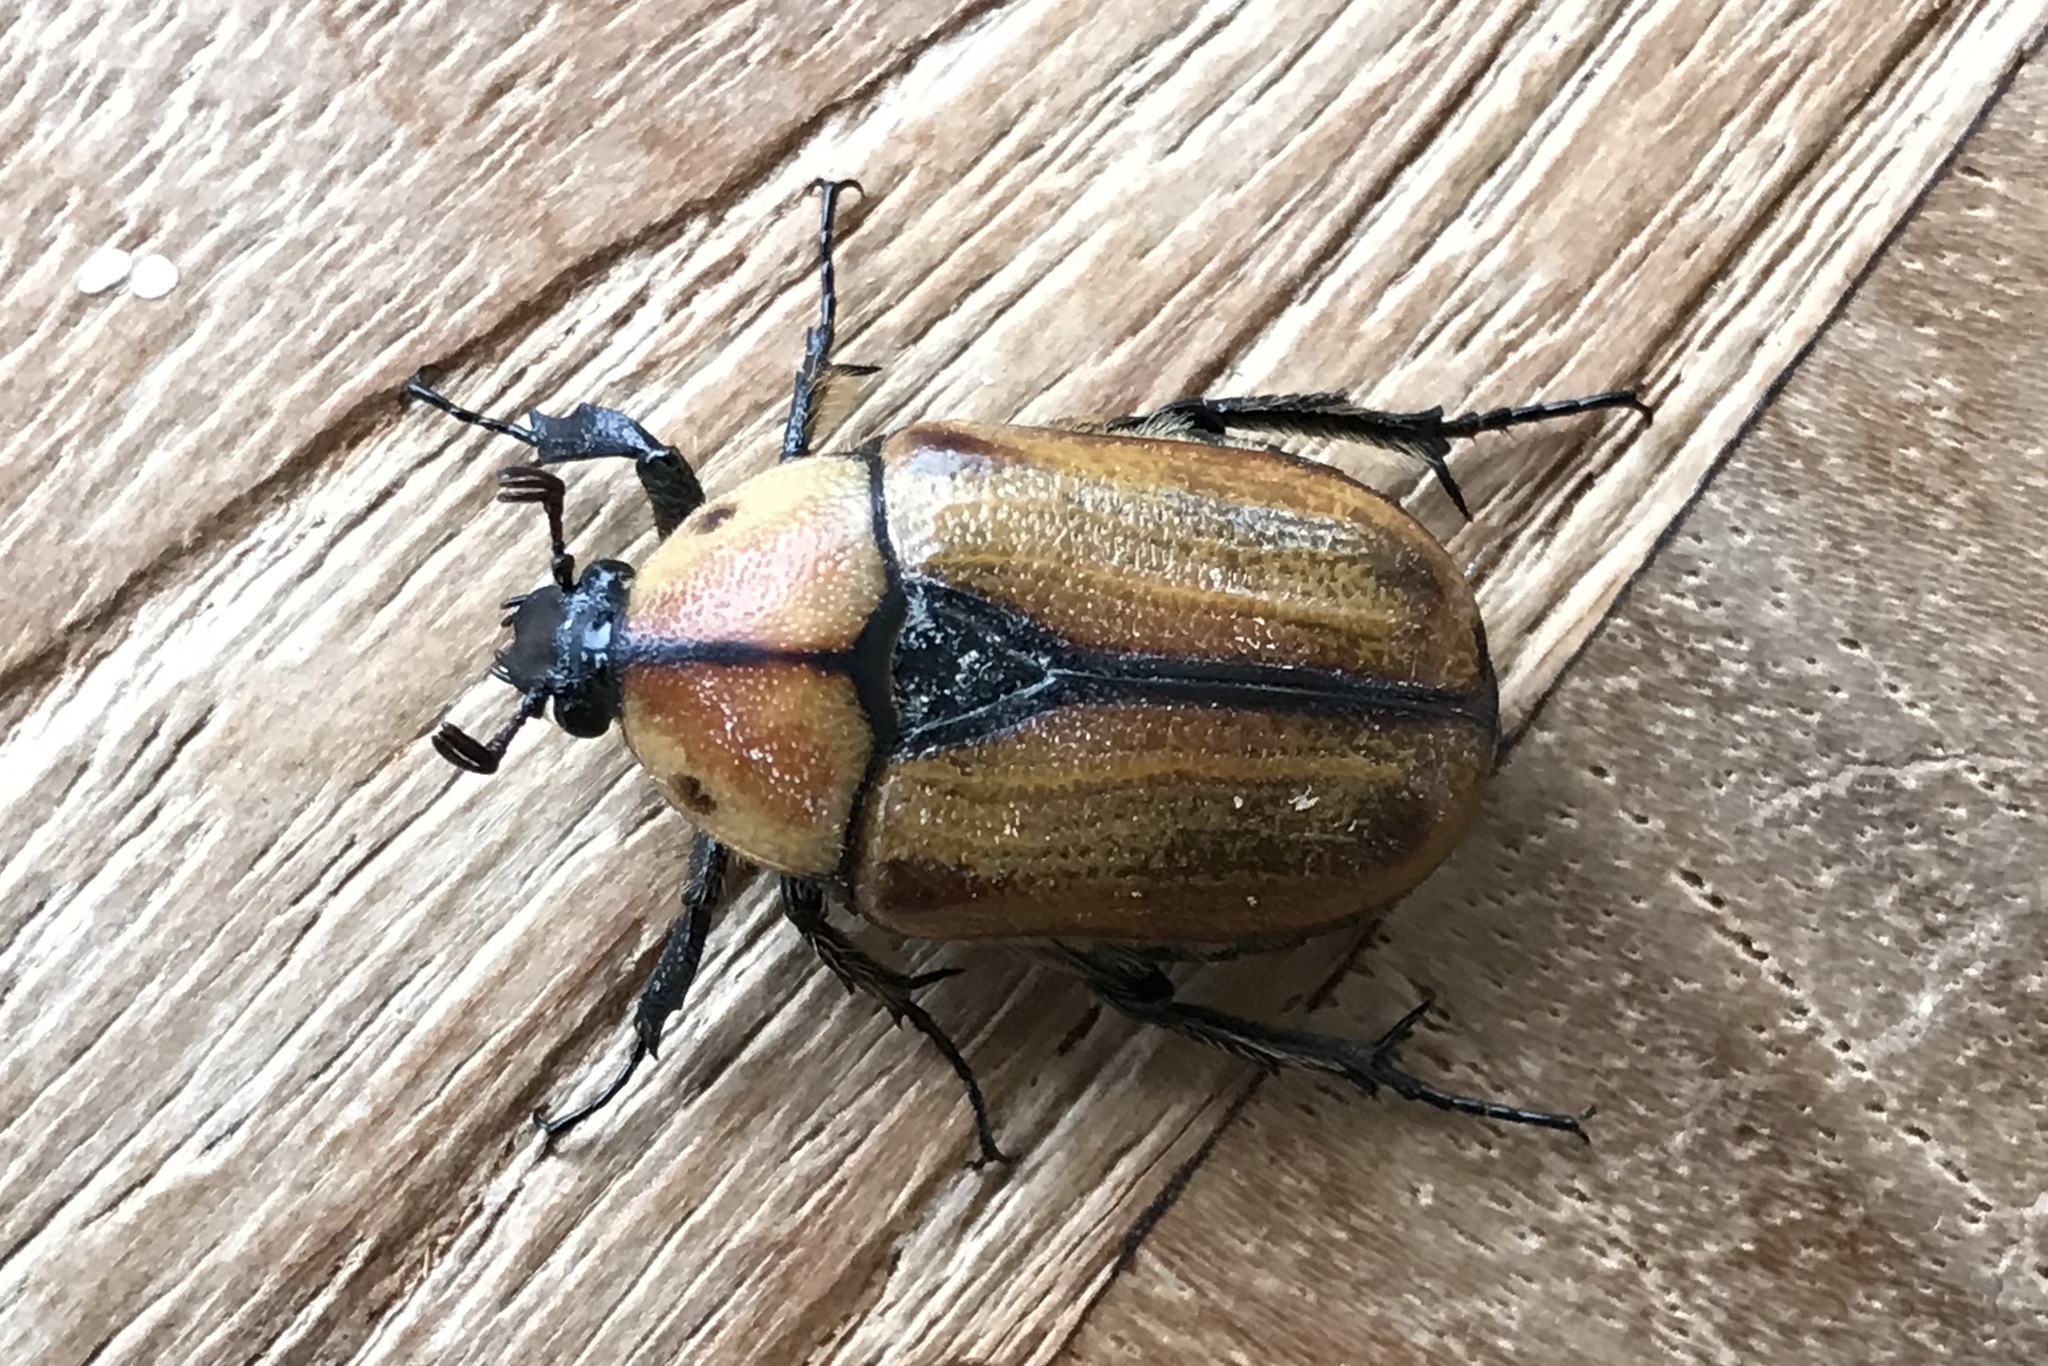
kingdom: Animalia
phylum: Arthropoda
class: Insecta
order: Coleoptera
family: Scarabaeidae
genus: Chondropyga
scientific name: Chondropyga dorsalis
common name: Cowboy beetle
